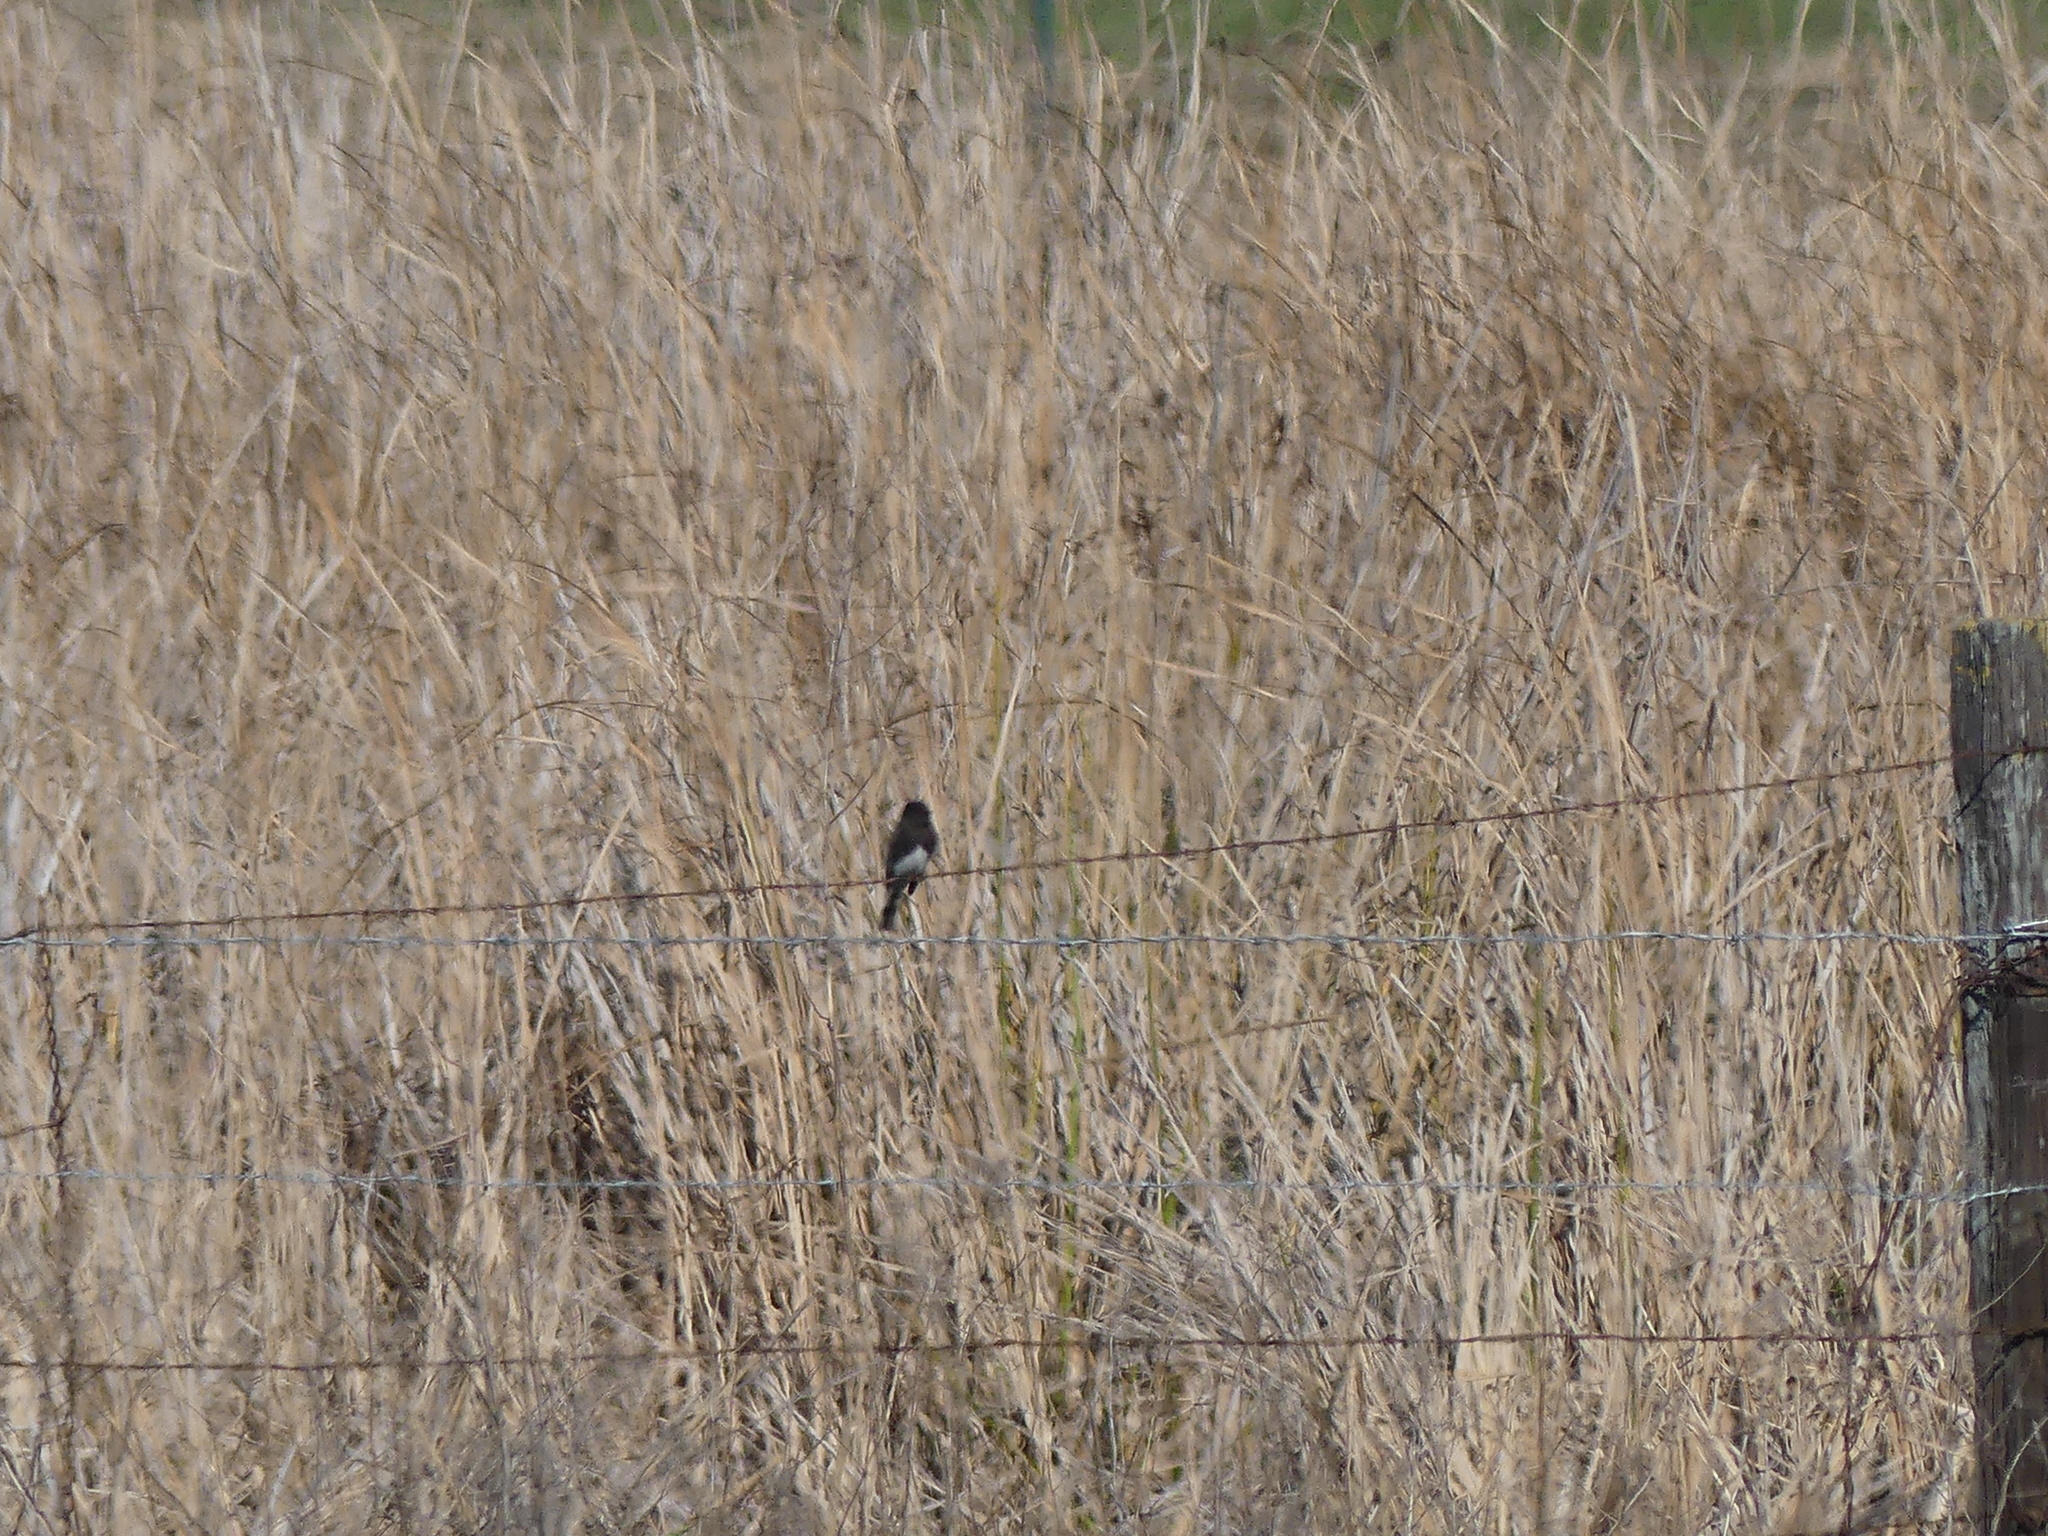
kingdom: Animalia
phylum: Chordata
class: Aves
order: Passeriformes
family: Tyrannidae
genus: Sayornis
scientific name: Sayornis nigricans
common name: Black phoebe
